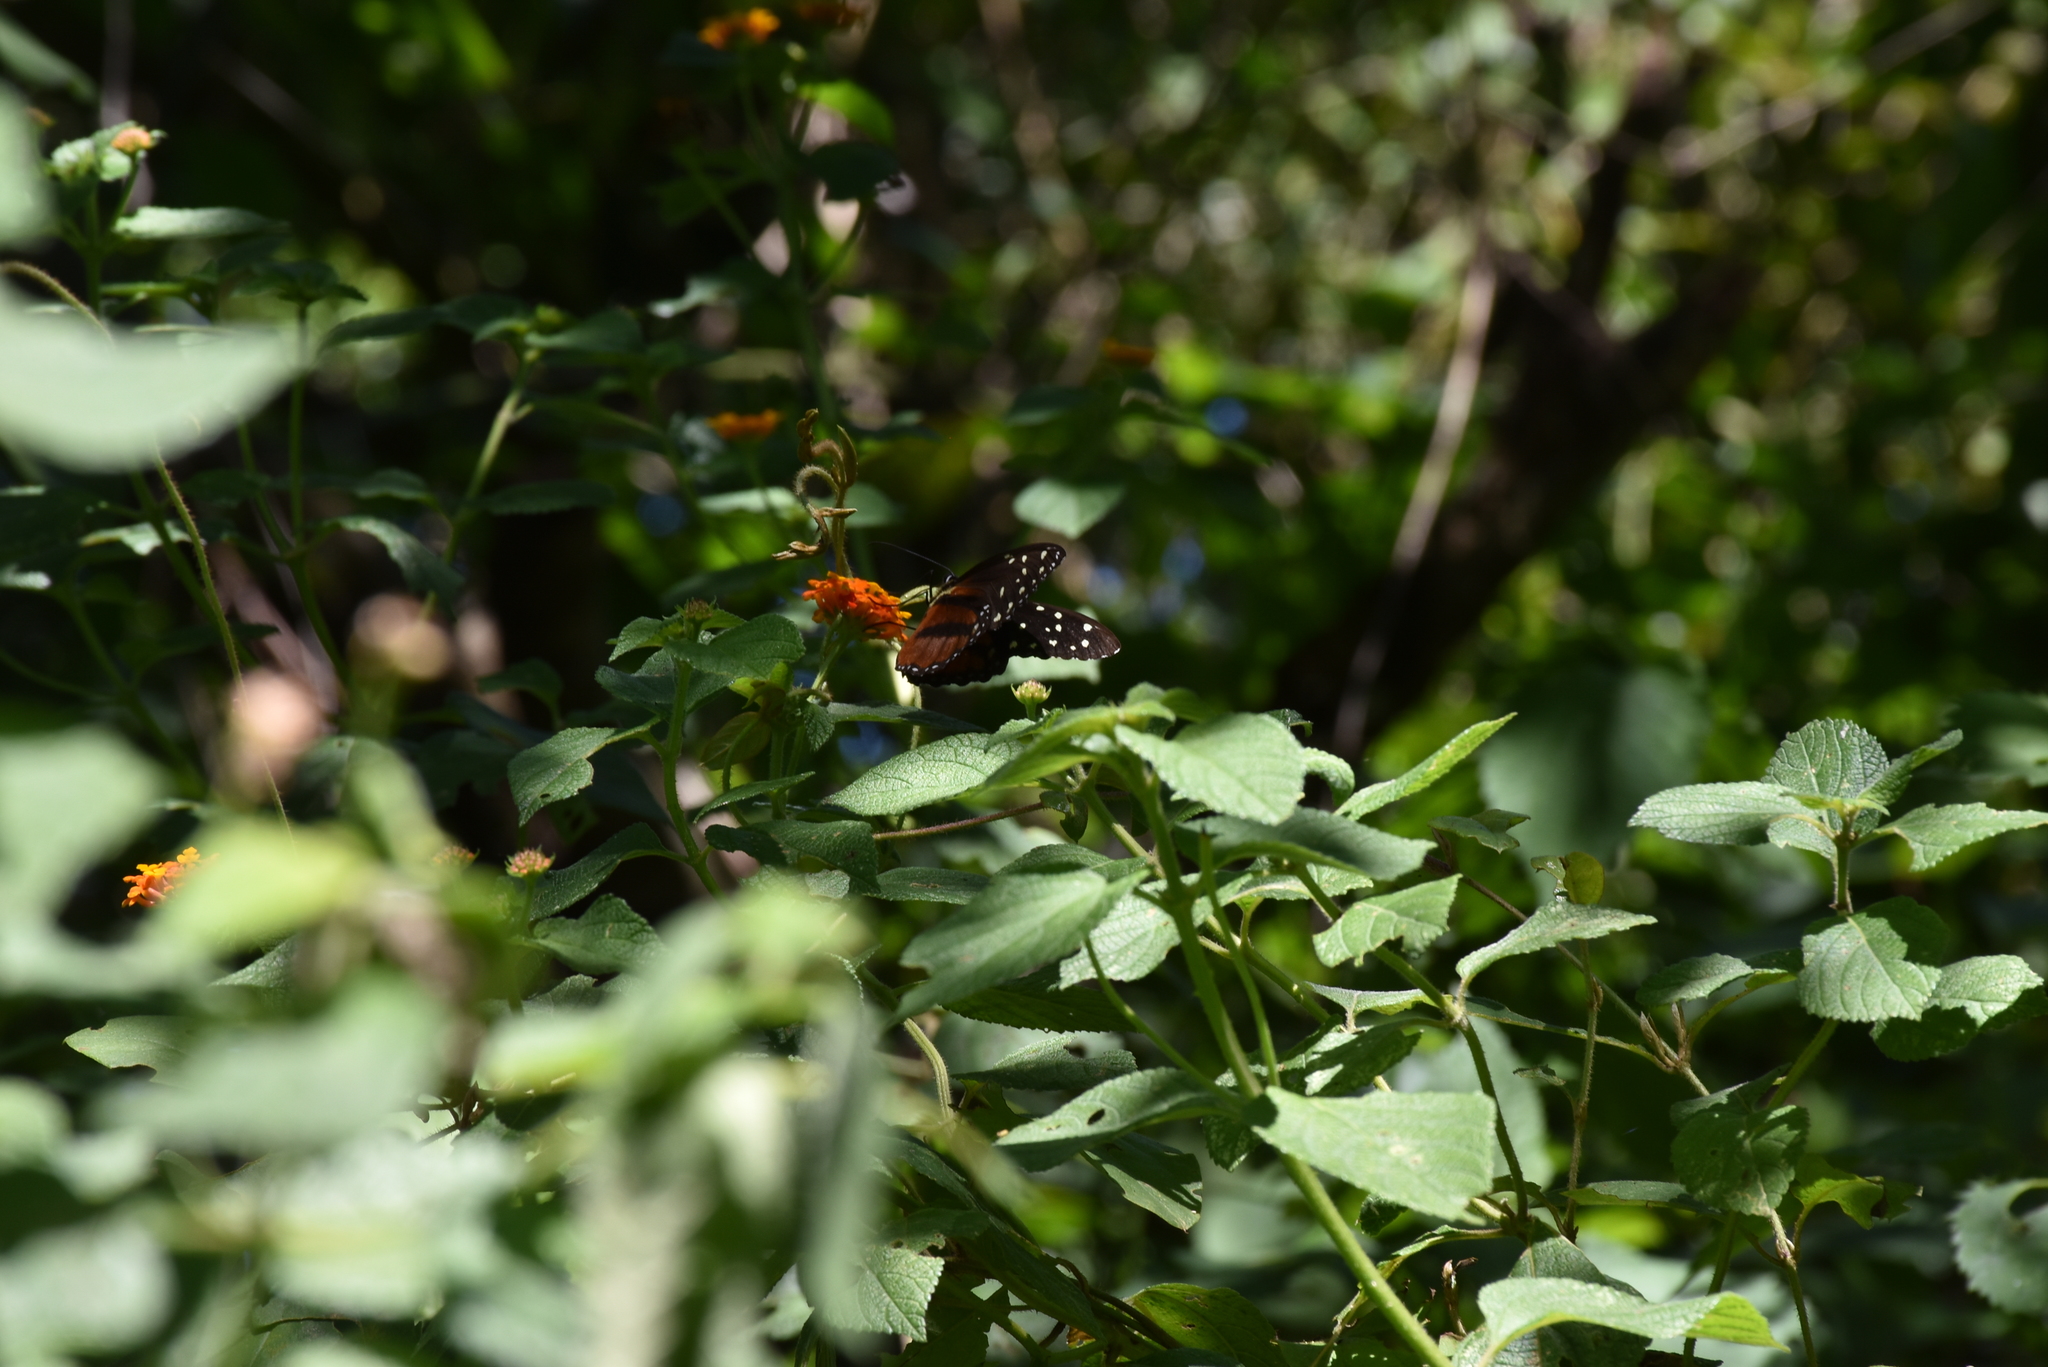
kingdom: Animalia
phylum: Arthropoda
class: Insecta
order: Lepidoptera
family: Nymphalidae
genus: Tithorea
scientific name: Tithorea tarricina
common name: Cream-spotted tigerwing
